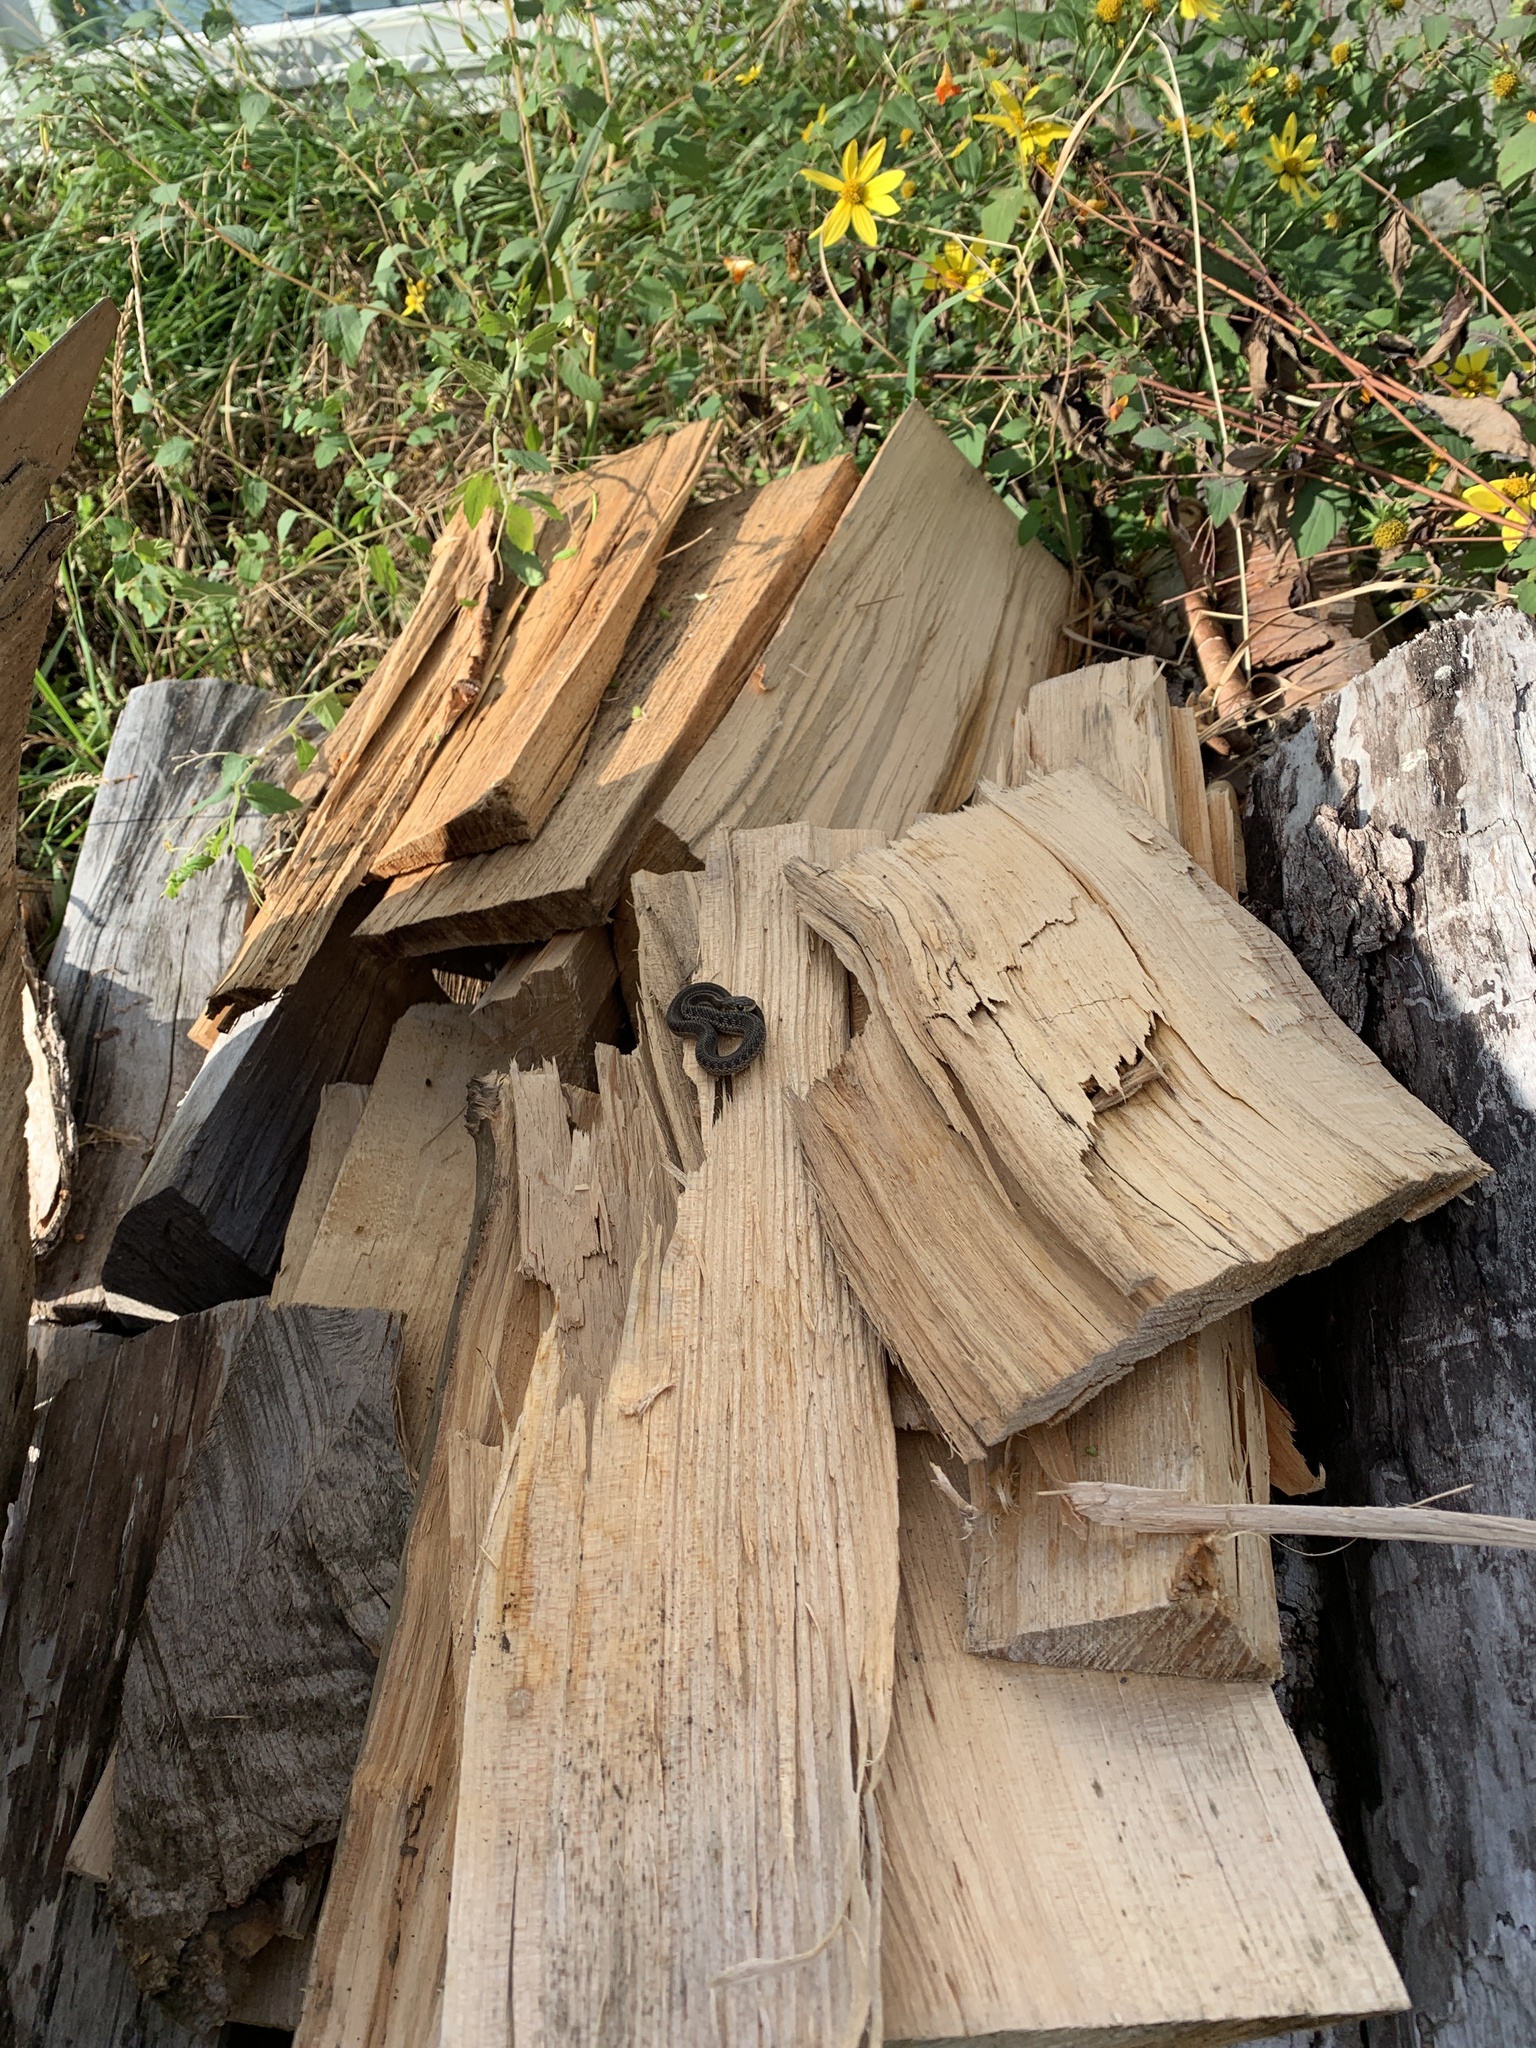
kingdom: Animalia
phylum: Chordata
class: Squamata
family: Colubridae
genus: Thamnophis
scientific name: Thamnophis sirtalis
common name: Common garter snake
